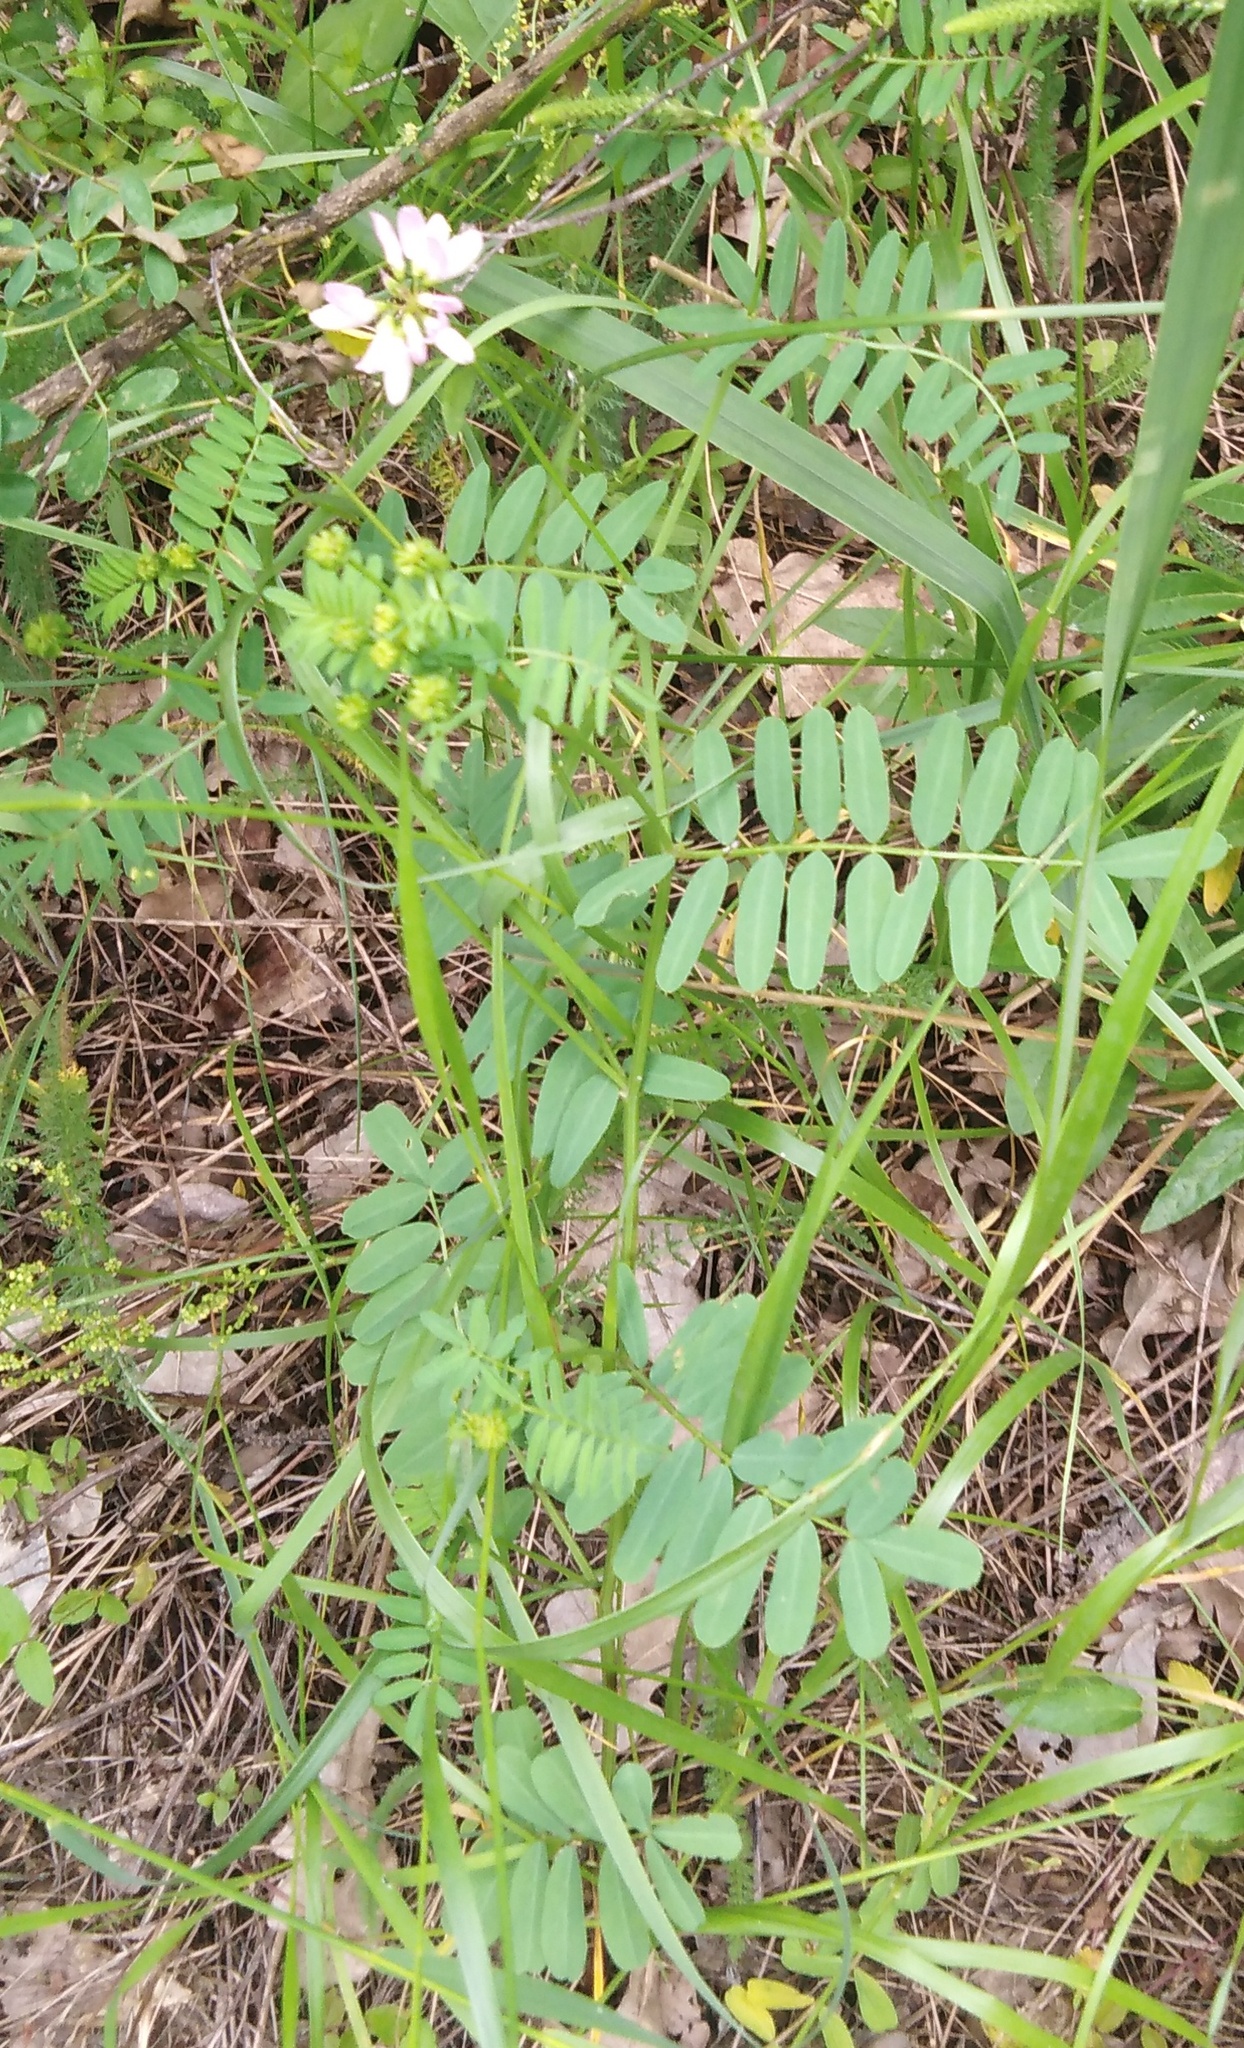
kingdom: Plantae
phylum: Tracheophyta
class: Magnoliopsida
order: Fabales
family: Fabaceae
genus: Coronilla
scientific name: Coronilla varia
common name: Crownvetch
